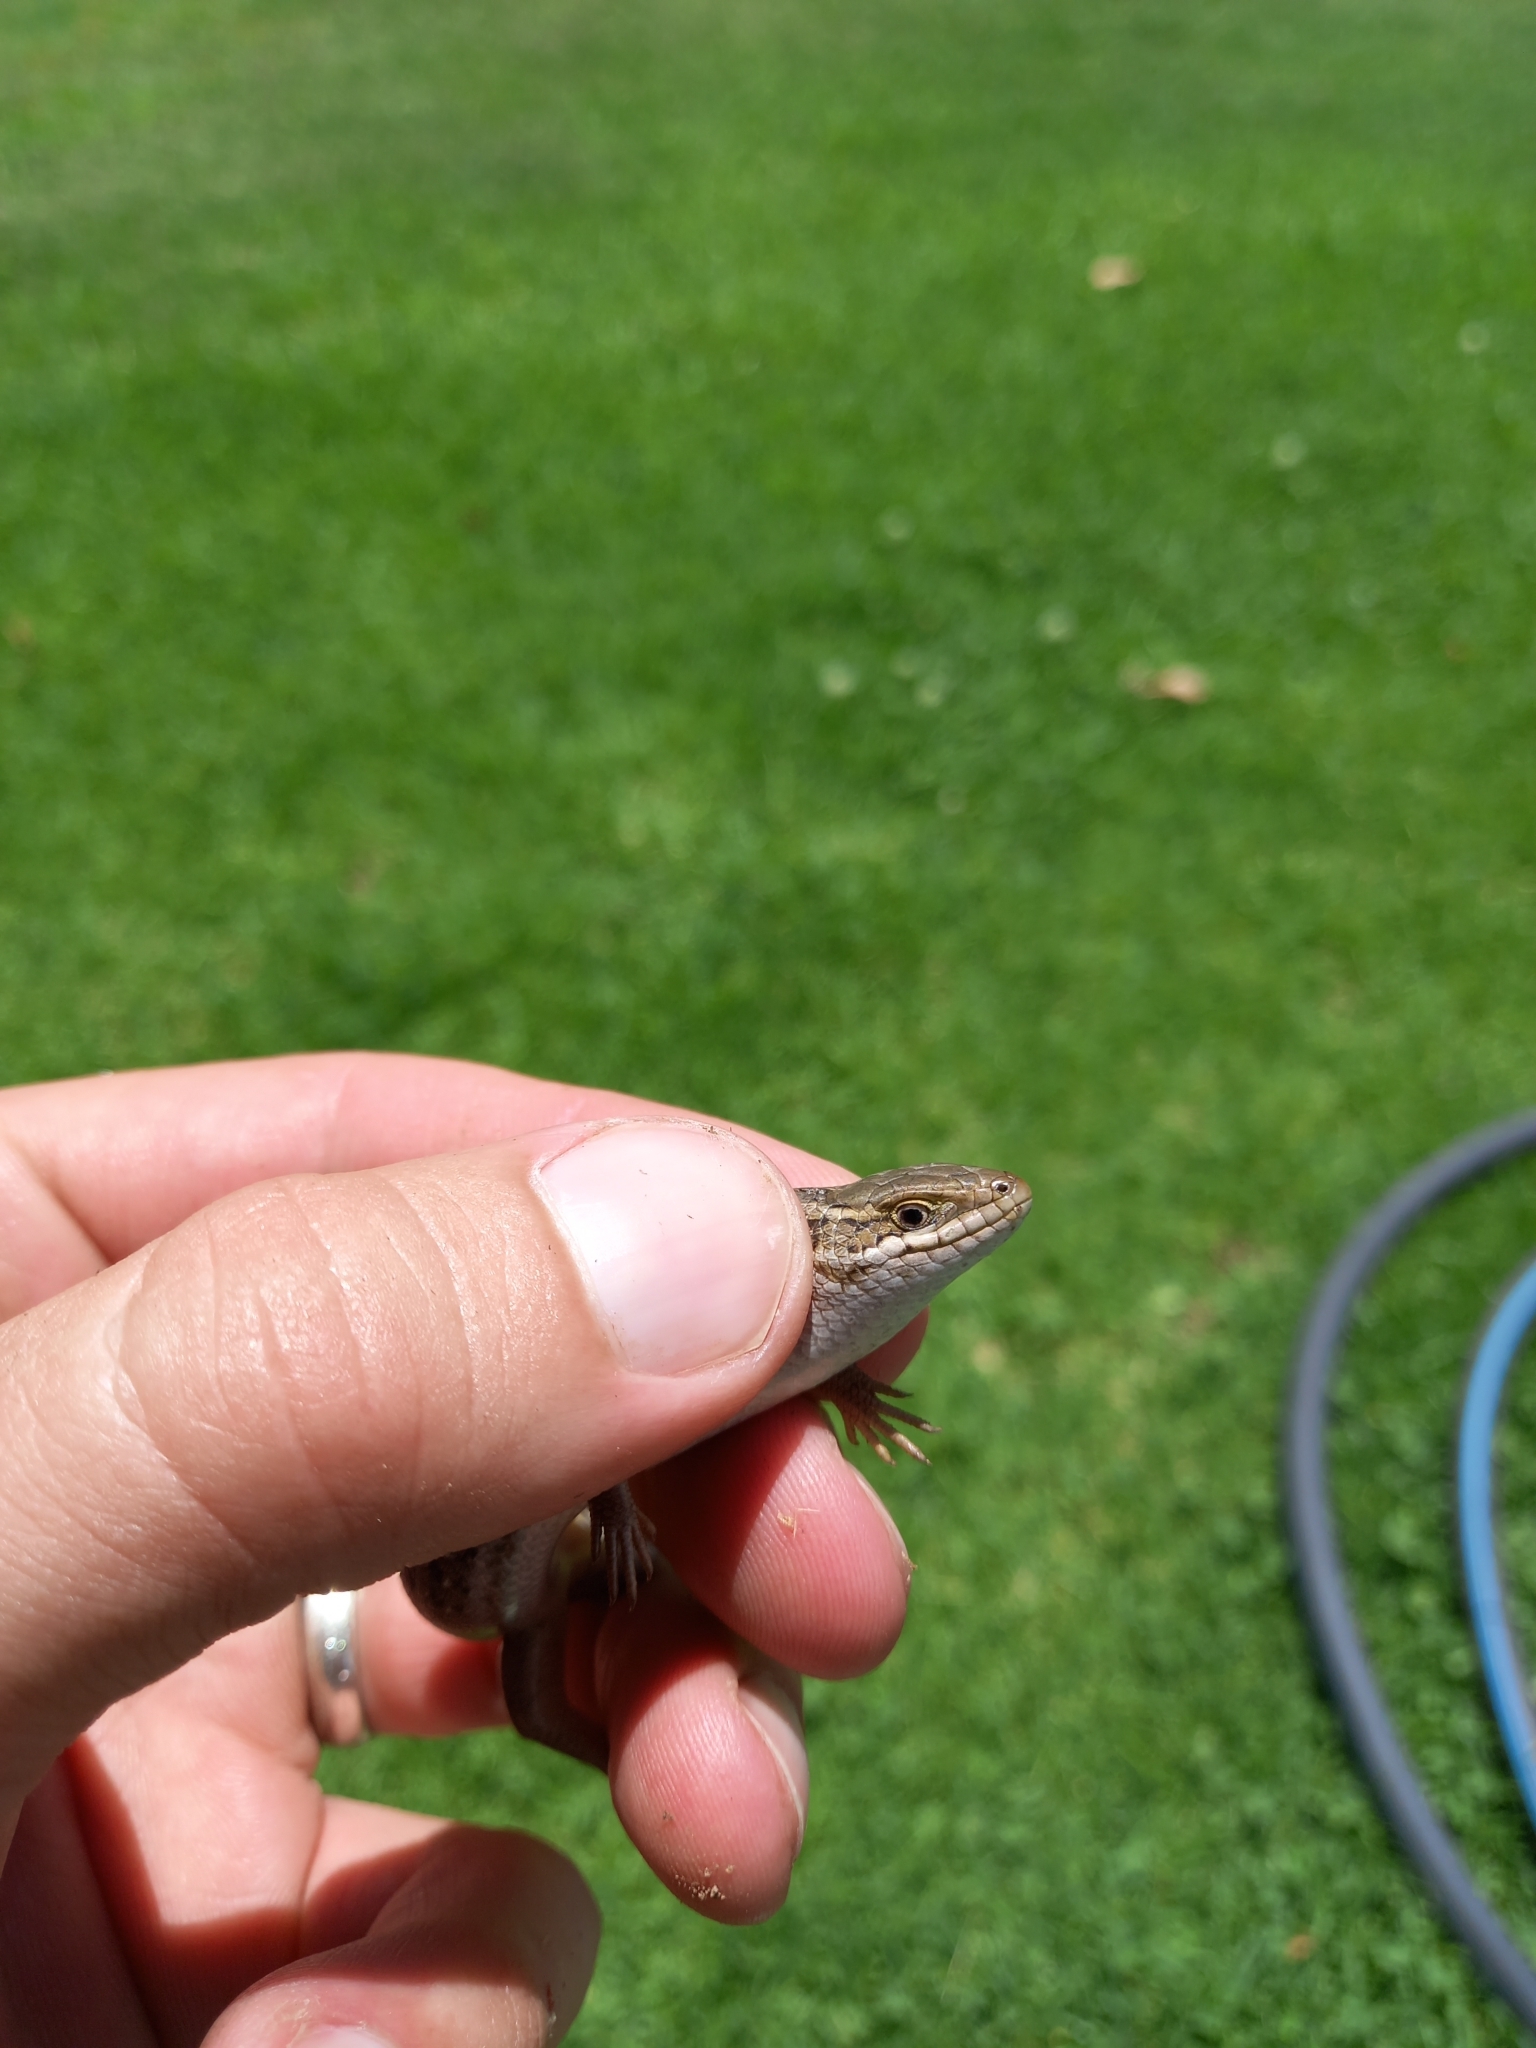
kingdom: Animalia
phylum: Chordata
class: Squamata
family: Scincidae
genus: Trachylepis
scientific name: Trachylepis capensis
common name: Cape skink
